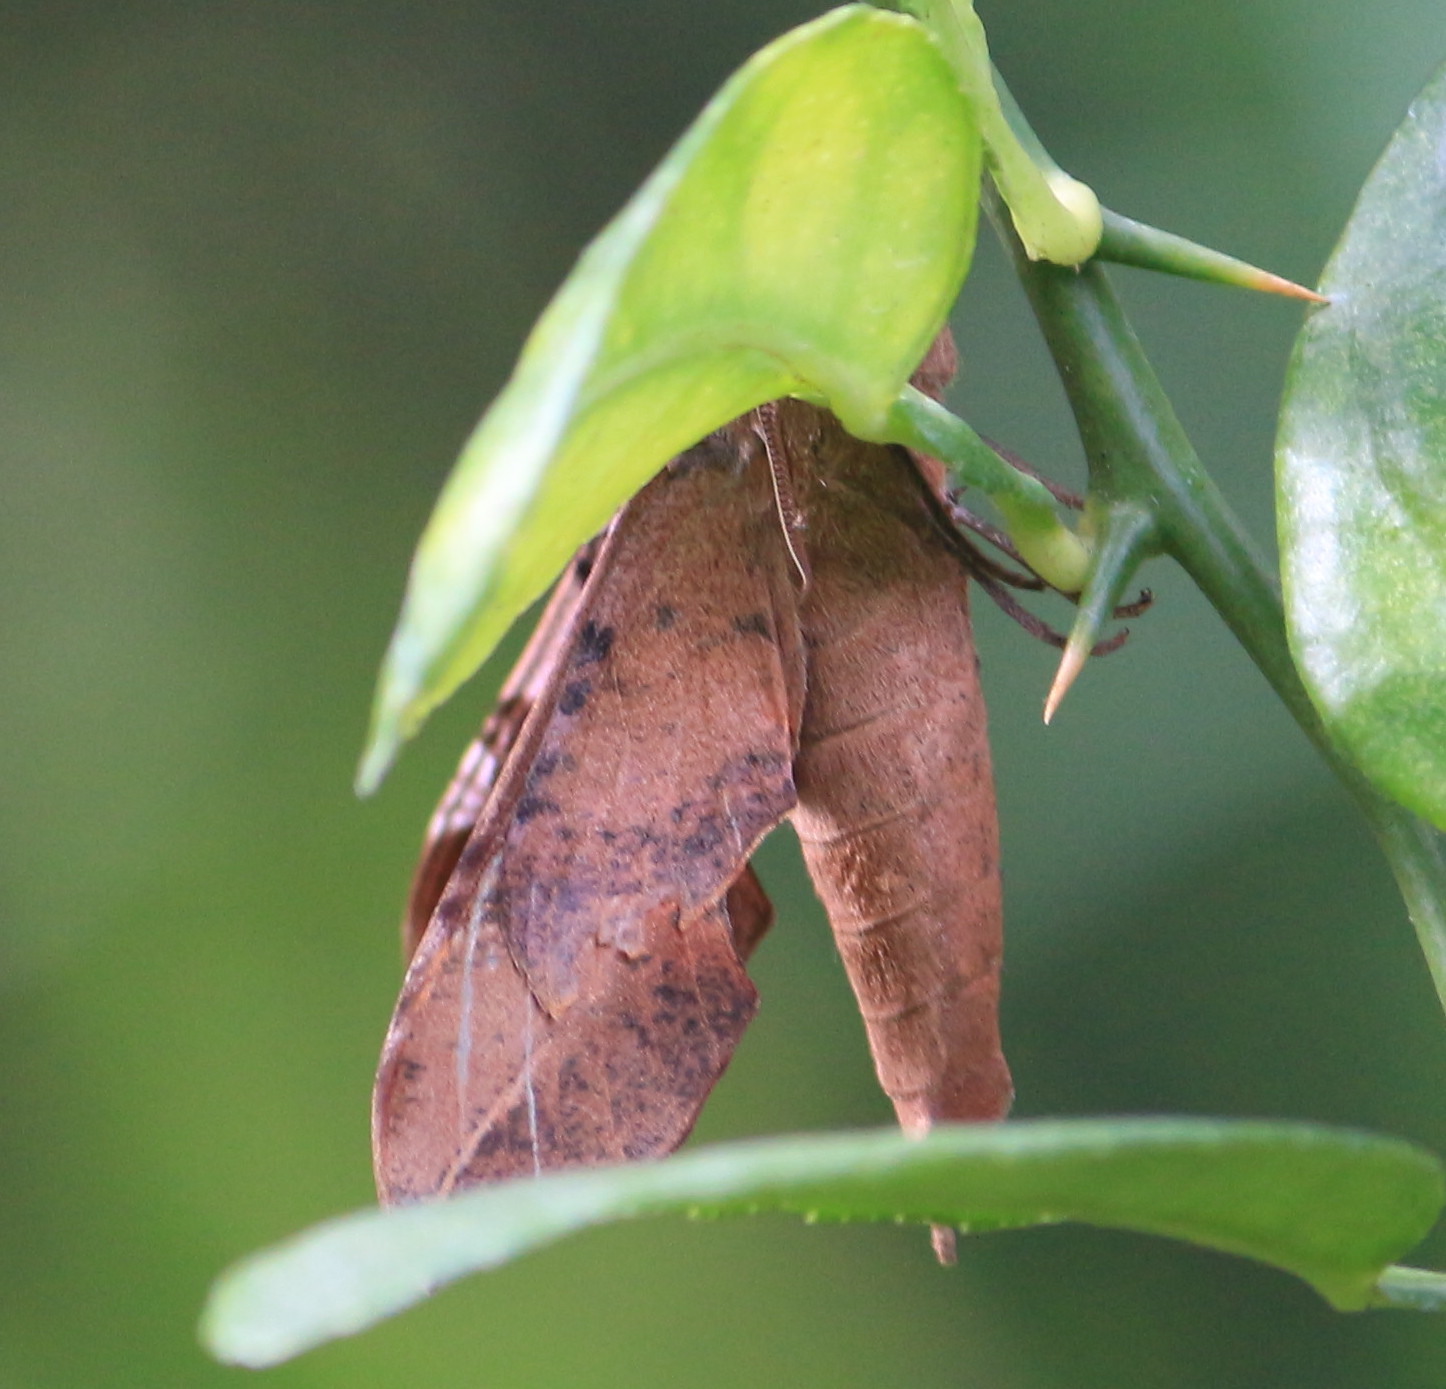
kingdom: Animalia
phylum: Arthropoda
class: Insecta
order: Lepidoptera
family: Sphingidae
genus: Callionima
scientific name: Callionima falcifera
